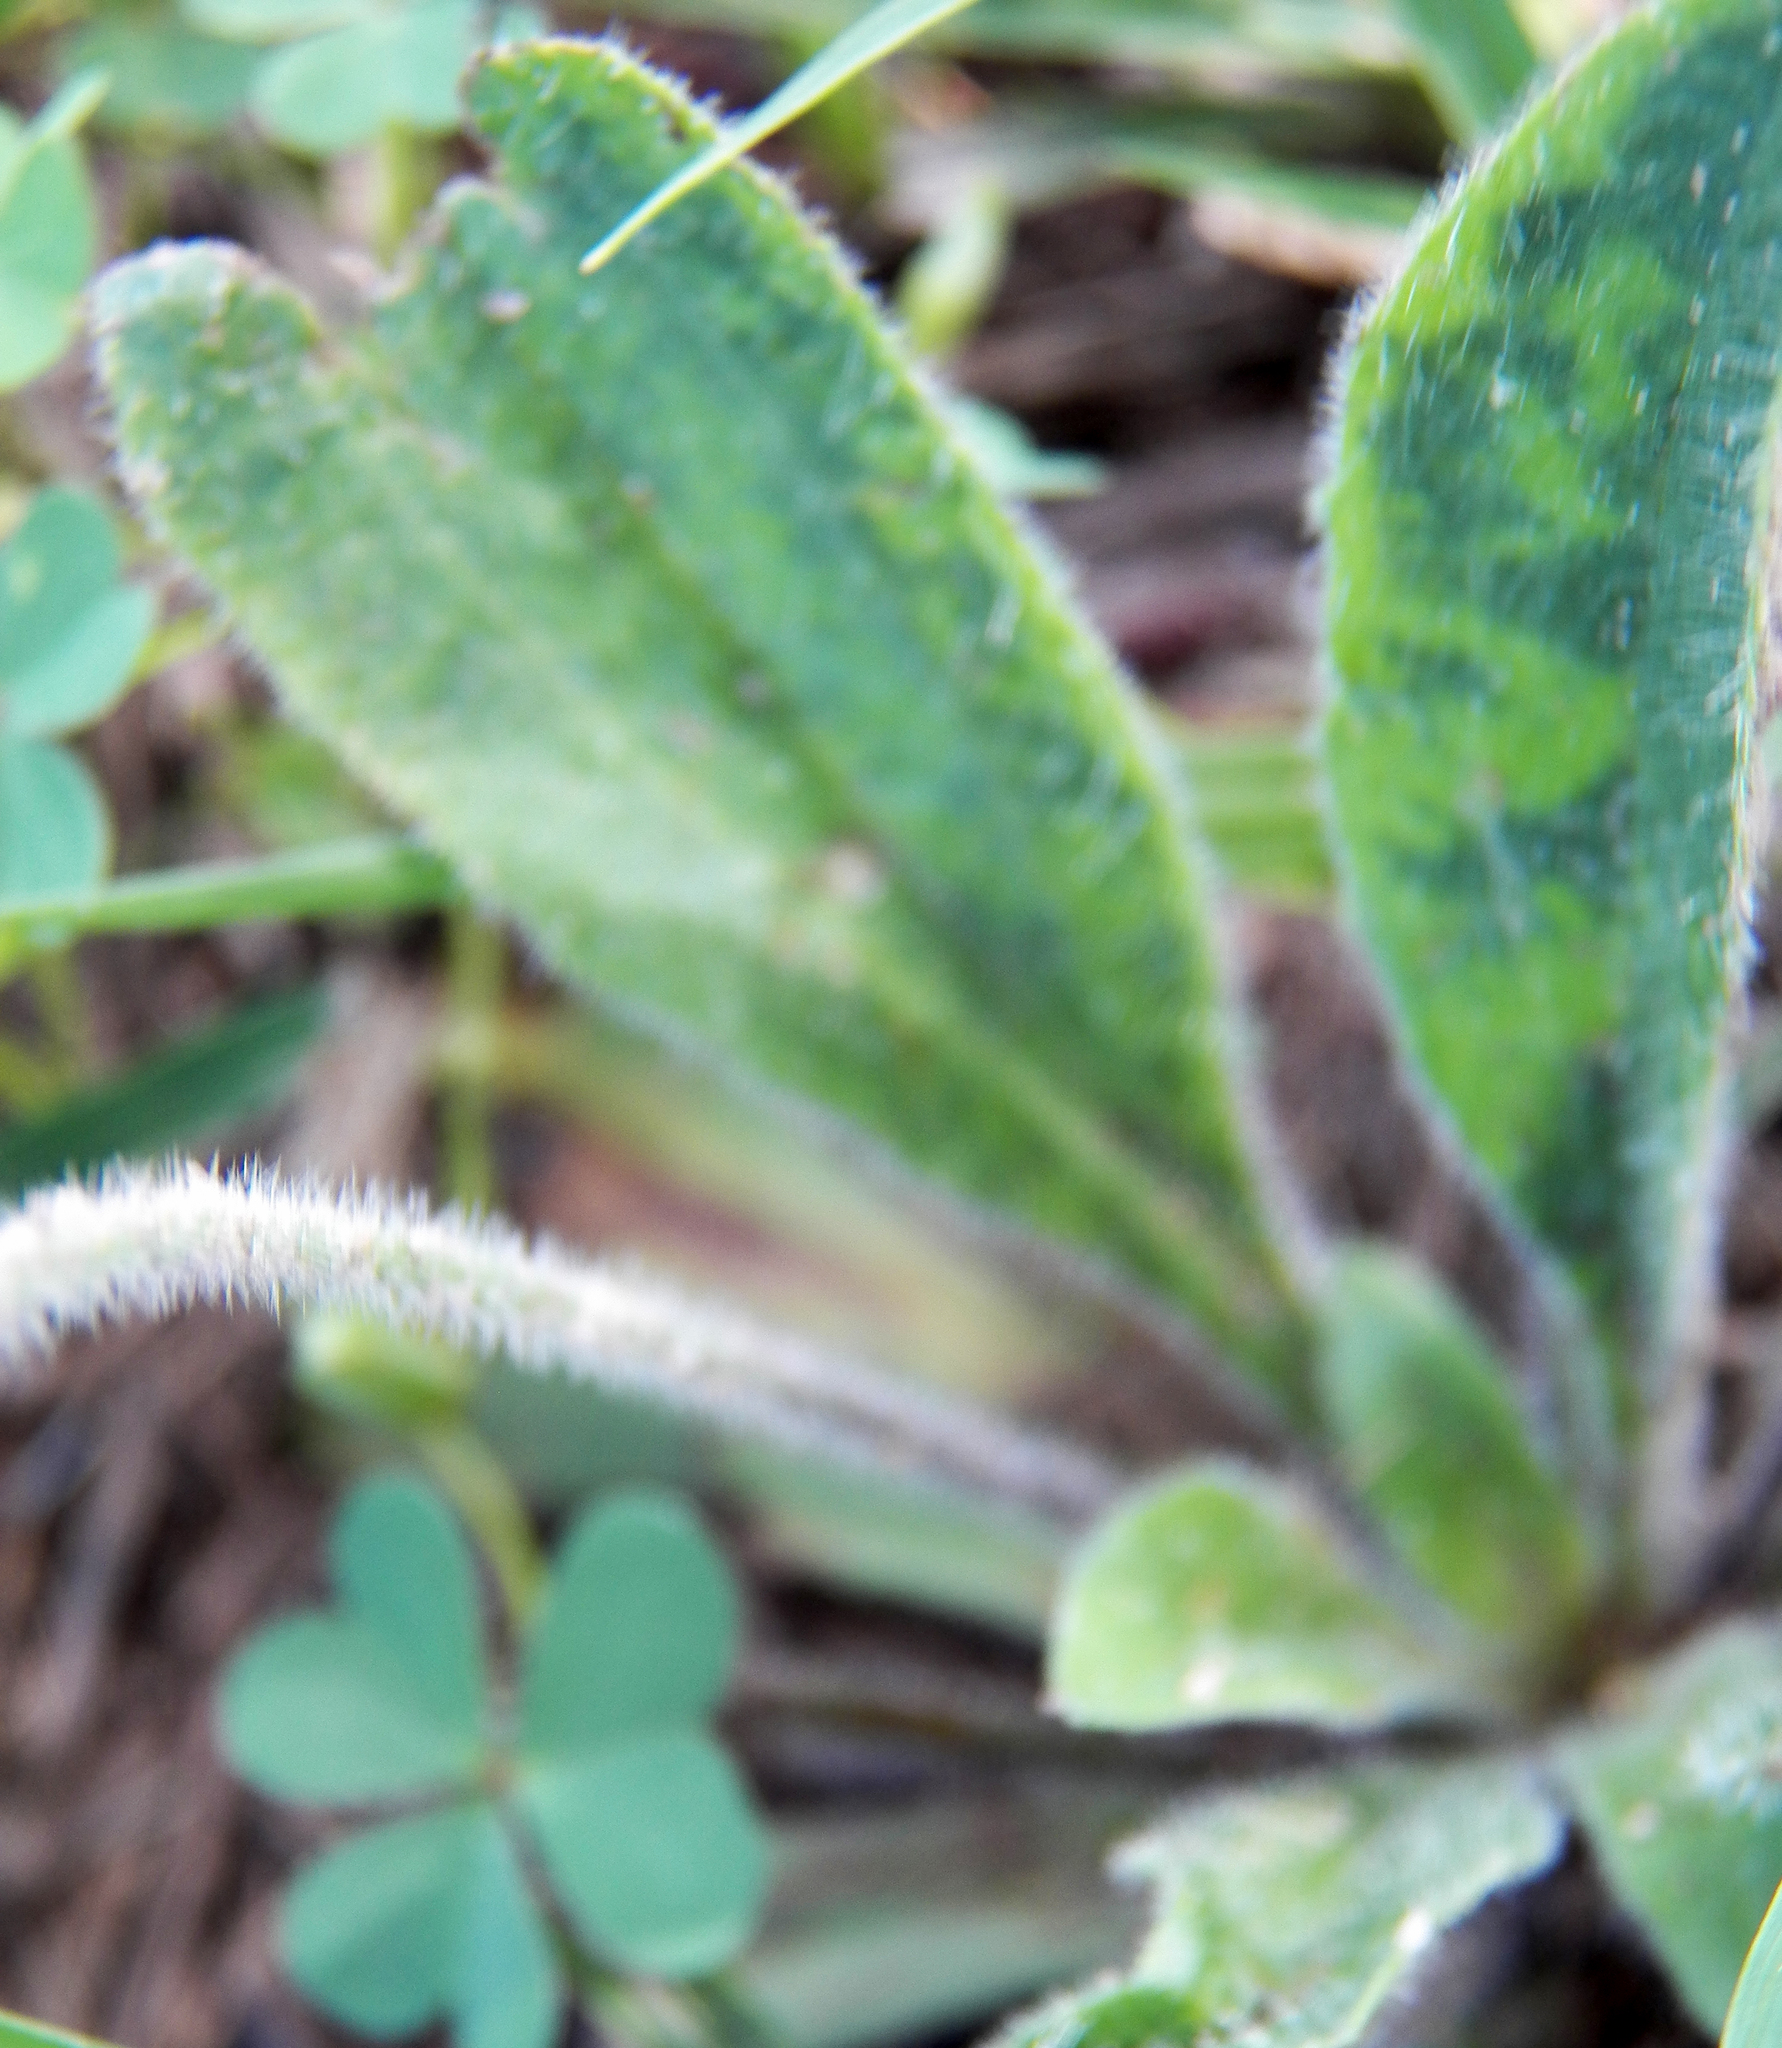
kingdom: Plantae
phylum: Tracheophyta
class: Magnoliopsida
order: Lamiales
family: Plantaginaceae
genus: Plantago
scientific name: Plantago rhodosperma
